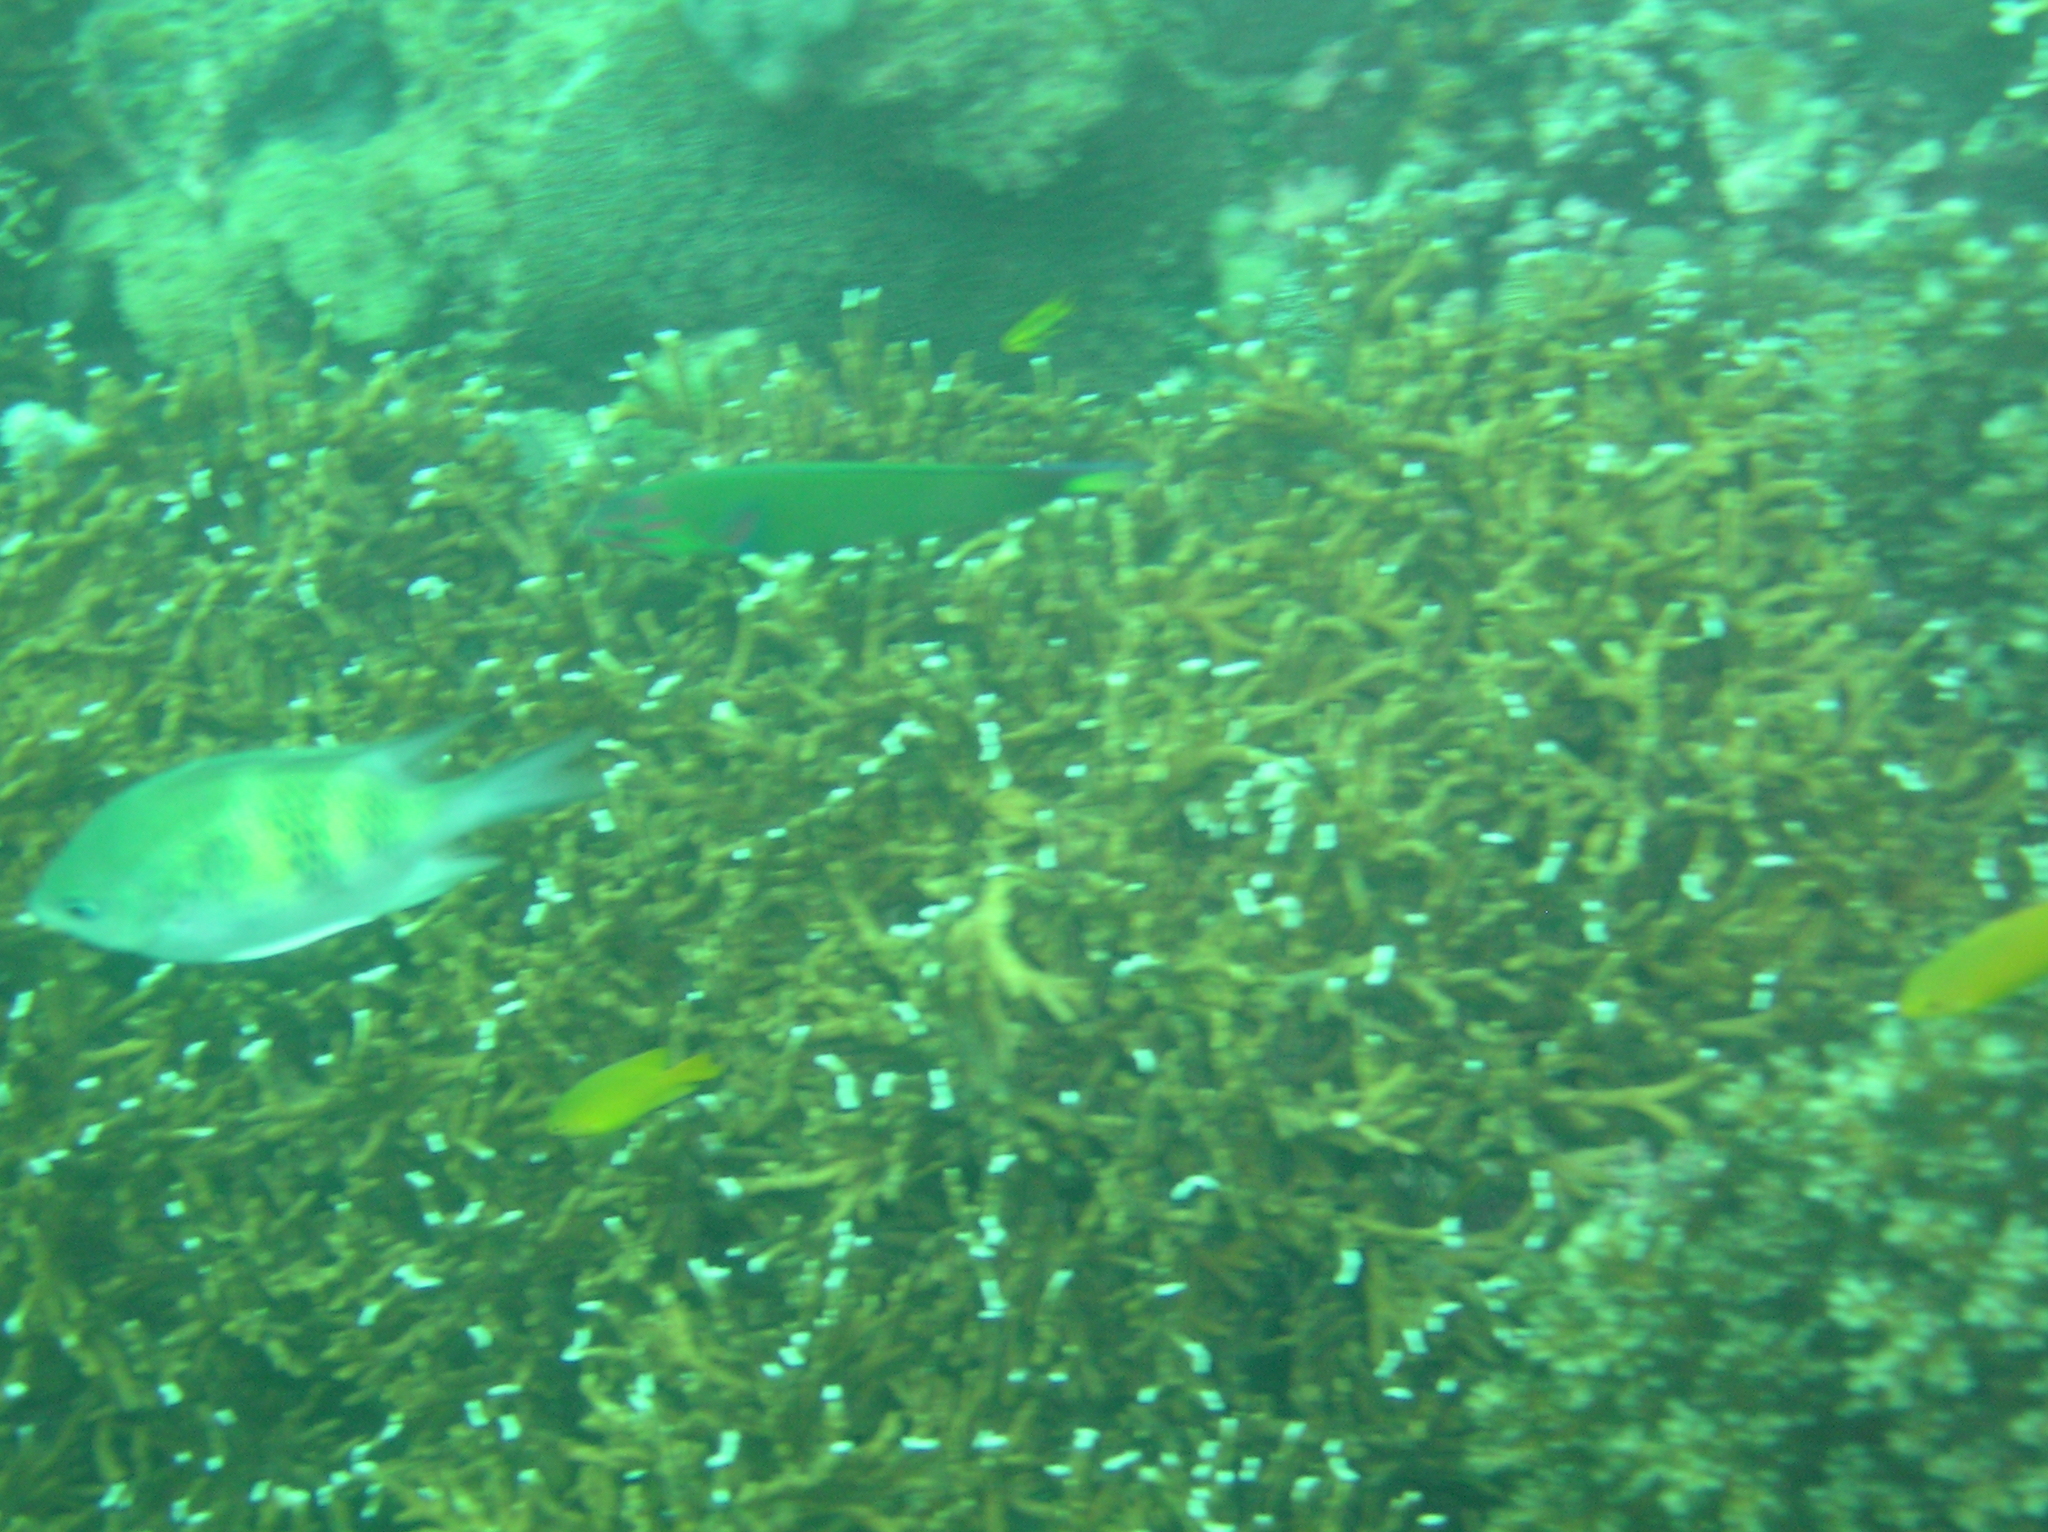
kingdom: Animalia
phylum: Chordata
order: Perciformes
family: Labridae
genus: Thalassoma
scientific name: Thalassoma lunare
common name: Blue wrasse
